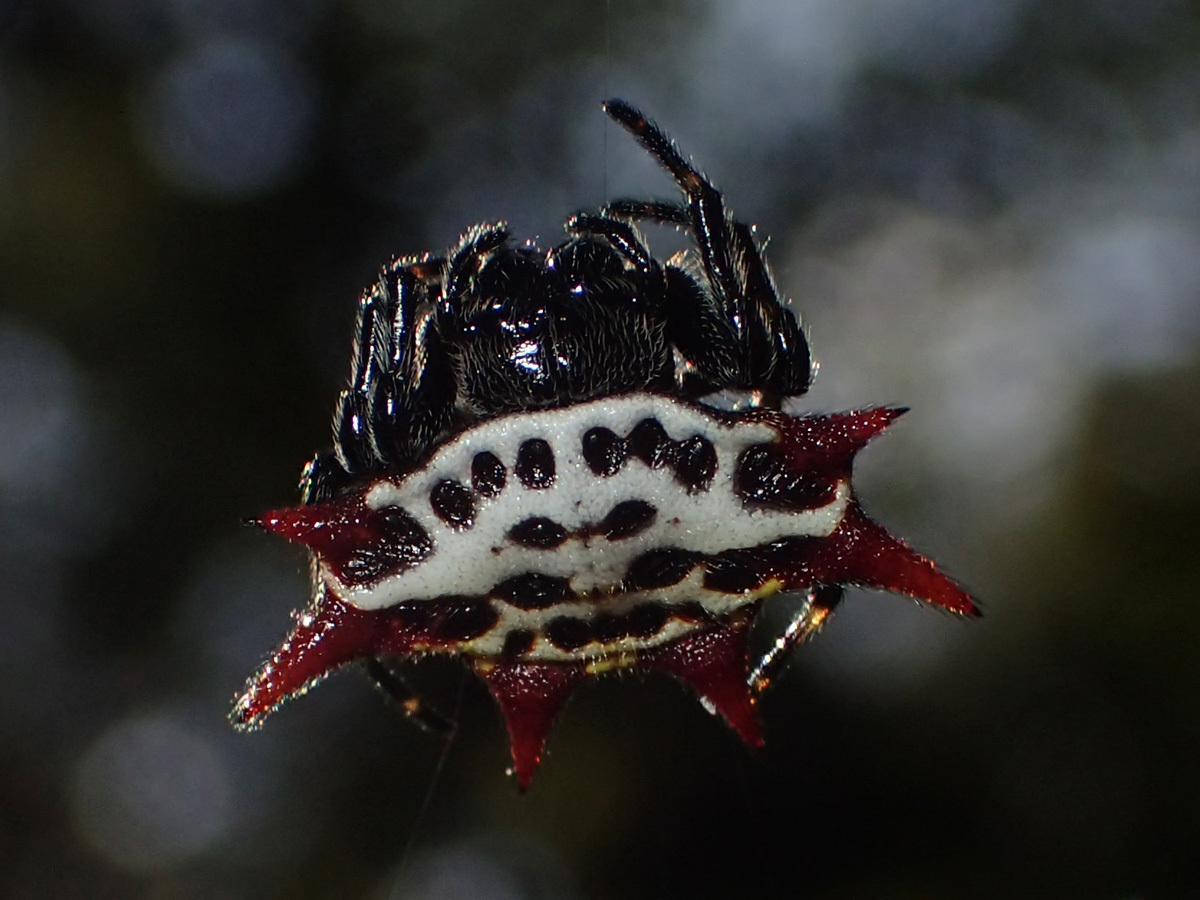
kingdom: Animalia
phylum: Arthropoda
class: Arachnida
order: Araneae
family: Araneidae
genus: Gasteracantha
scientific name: Gasteracantha cancriformis
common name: Orb weavers
